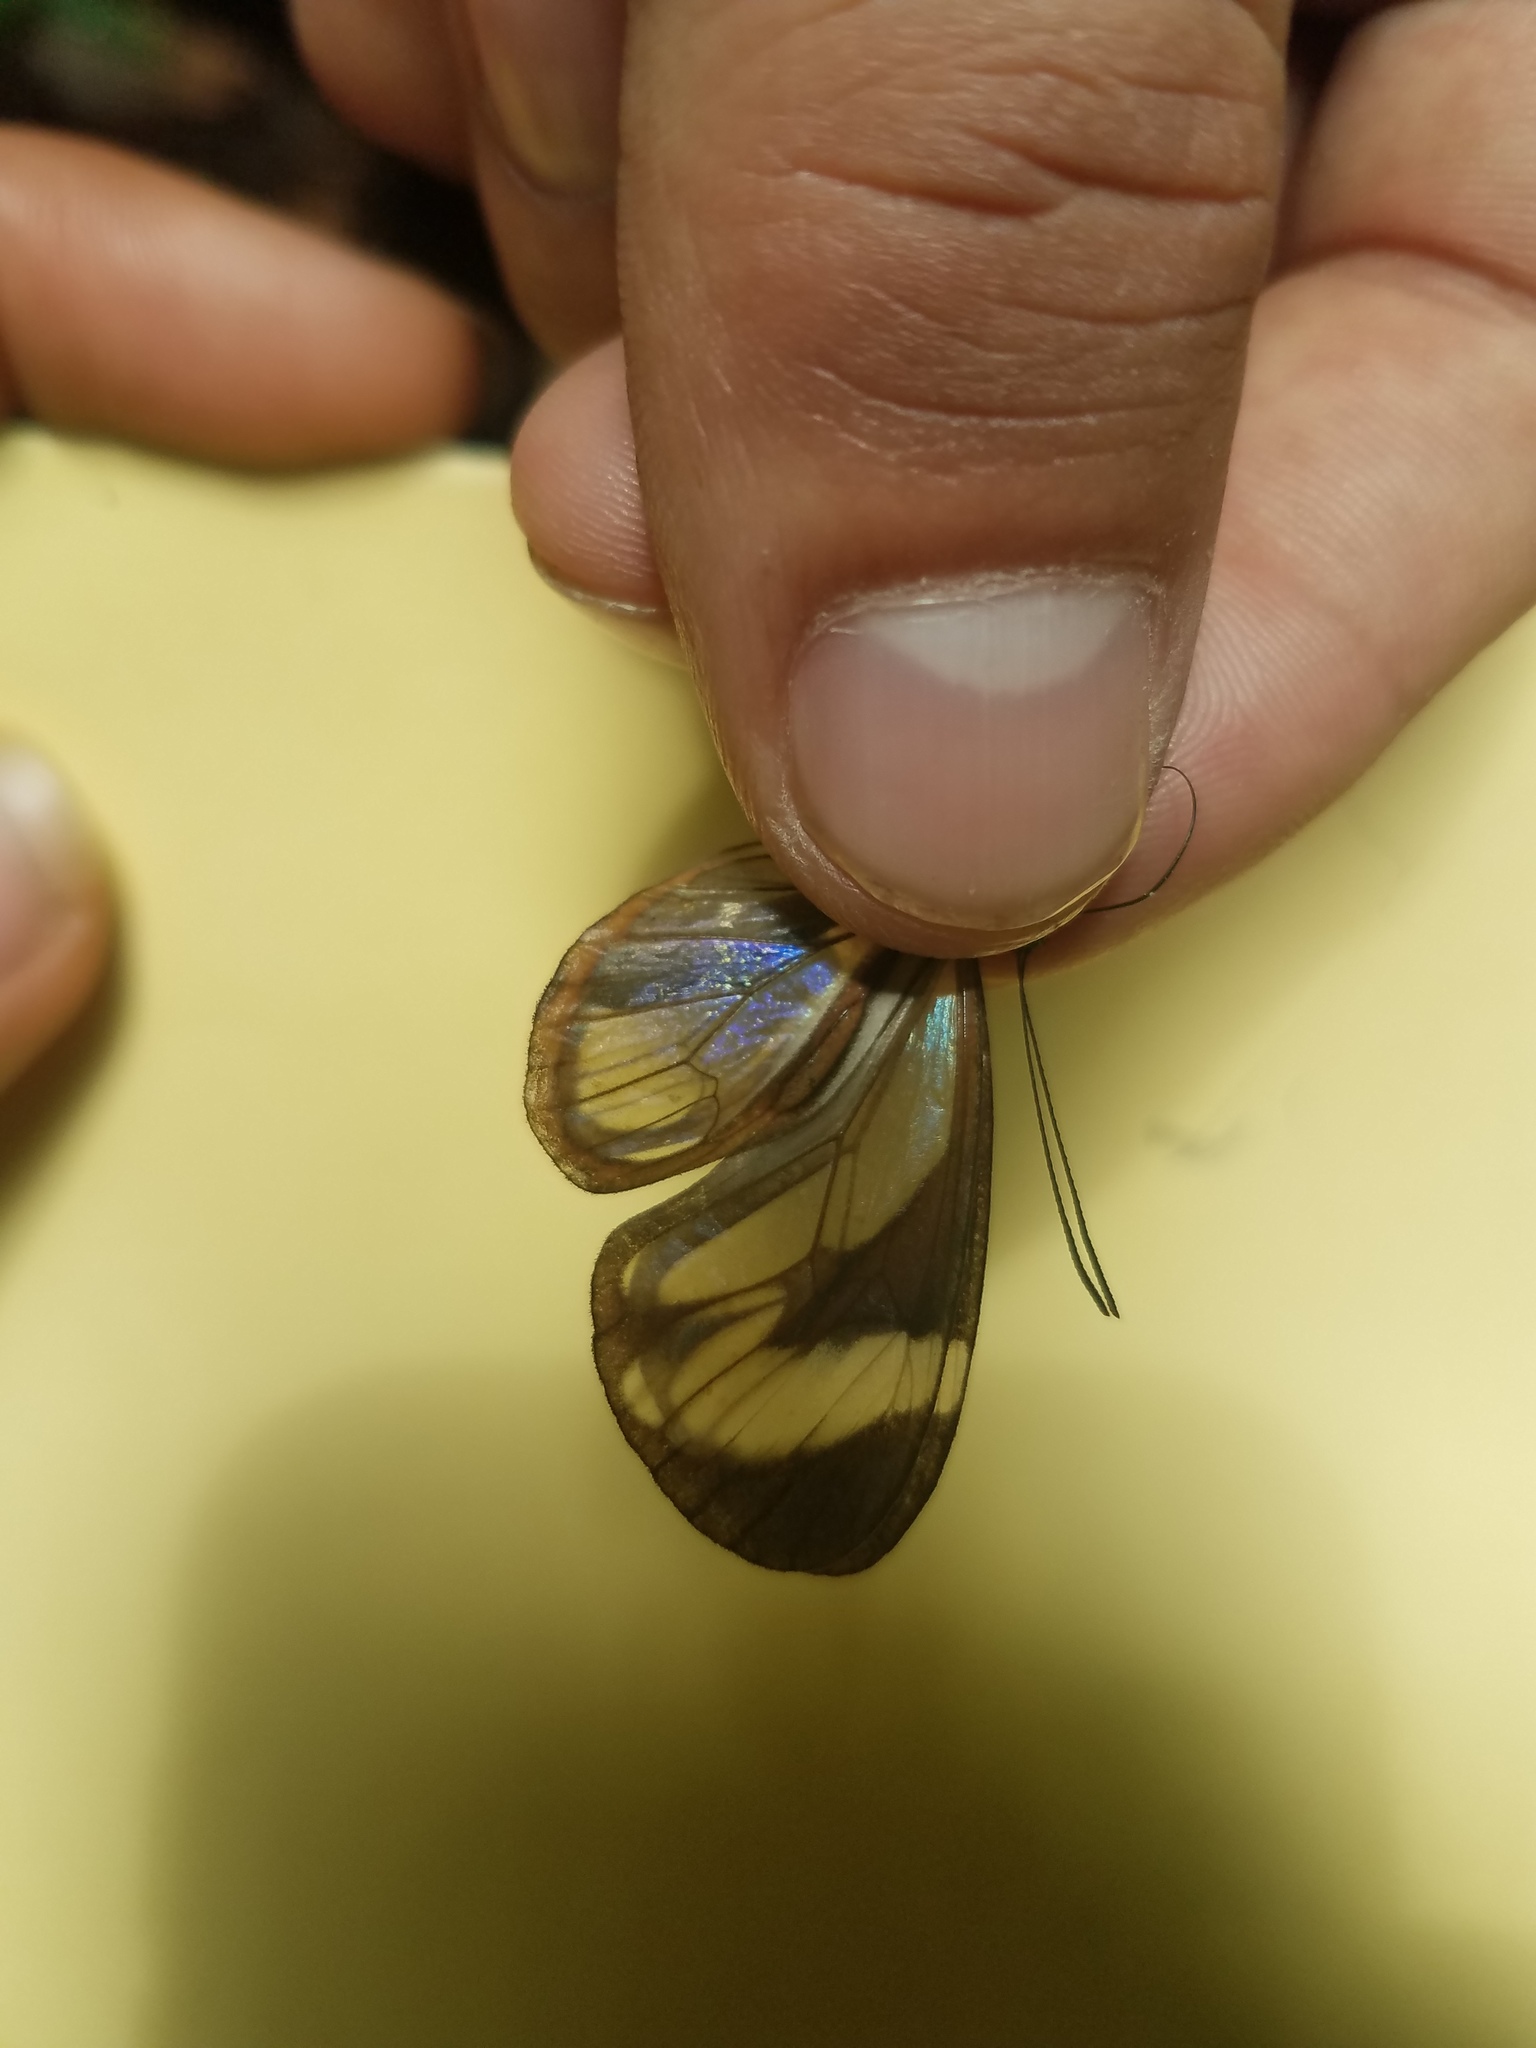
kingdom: Animalia
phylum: Arthropoda
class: Insecta
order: Lepidoptera
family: Nymphalidae
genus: Ithomia
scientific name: Ithomia patilla
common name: Patilla clearwing
